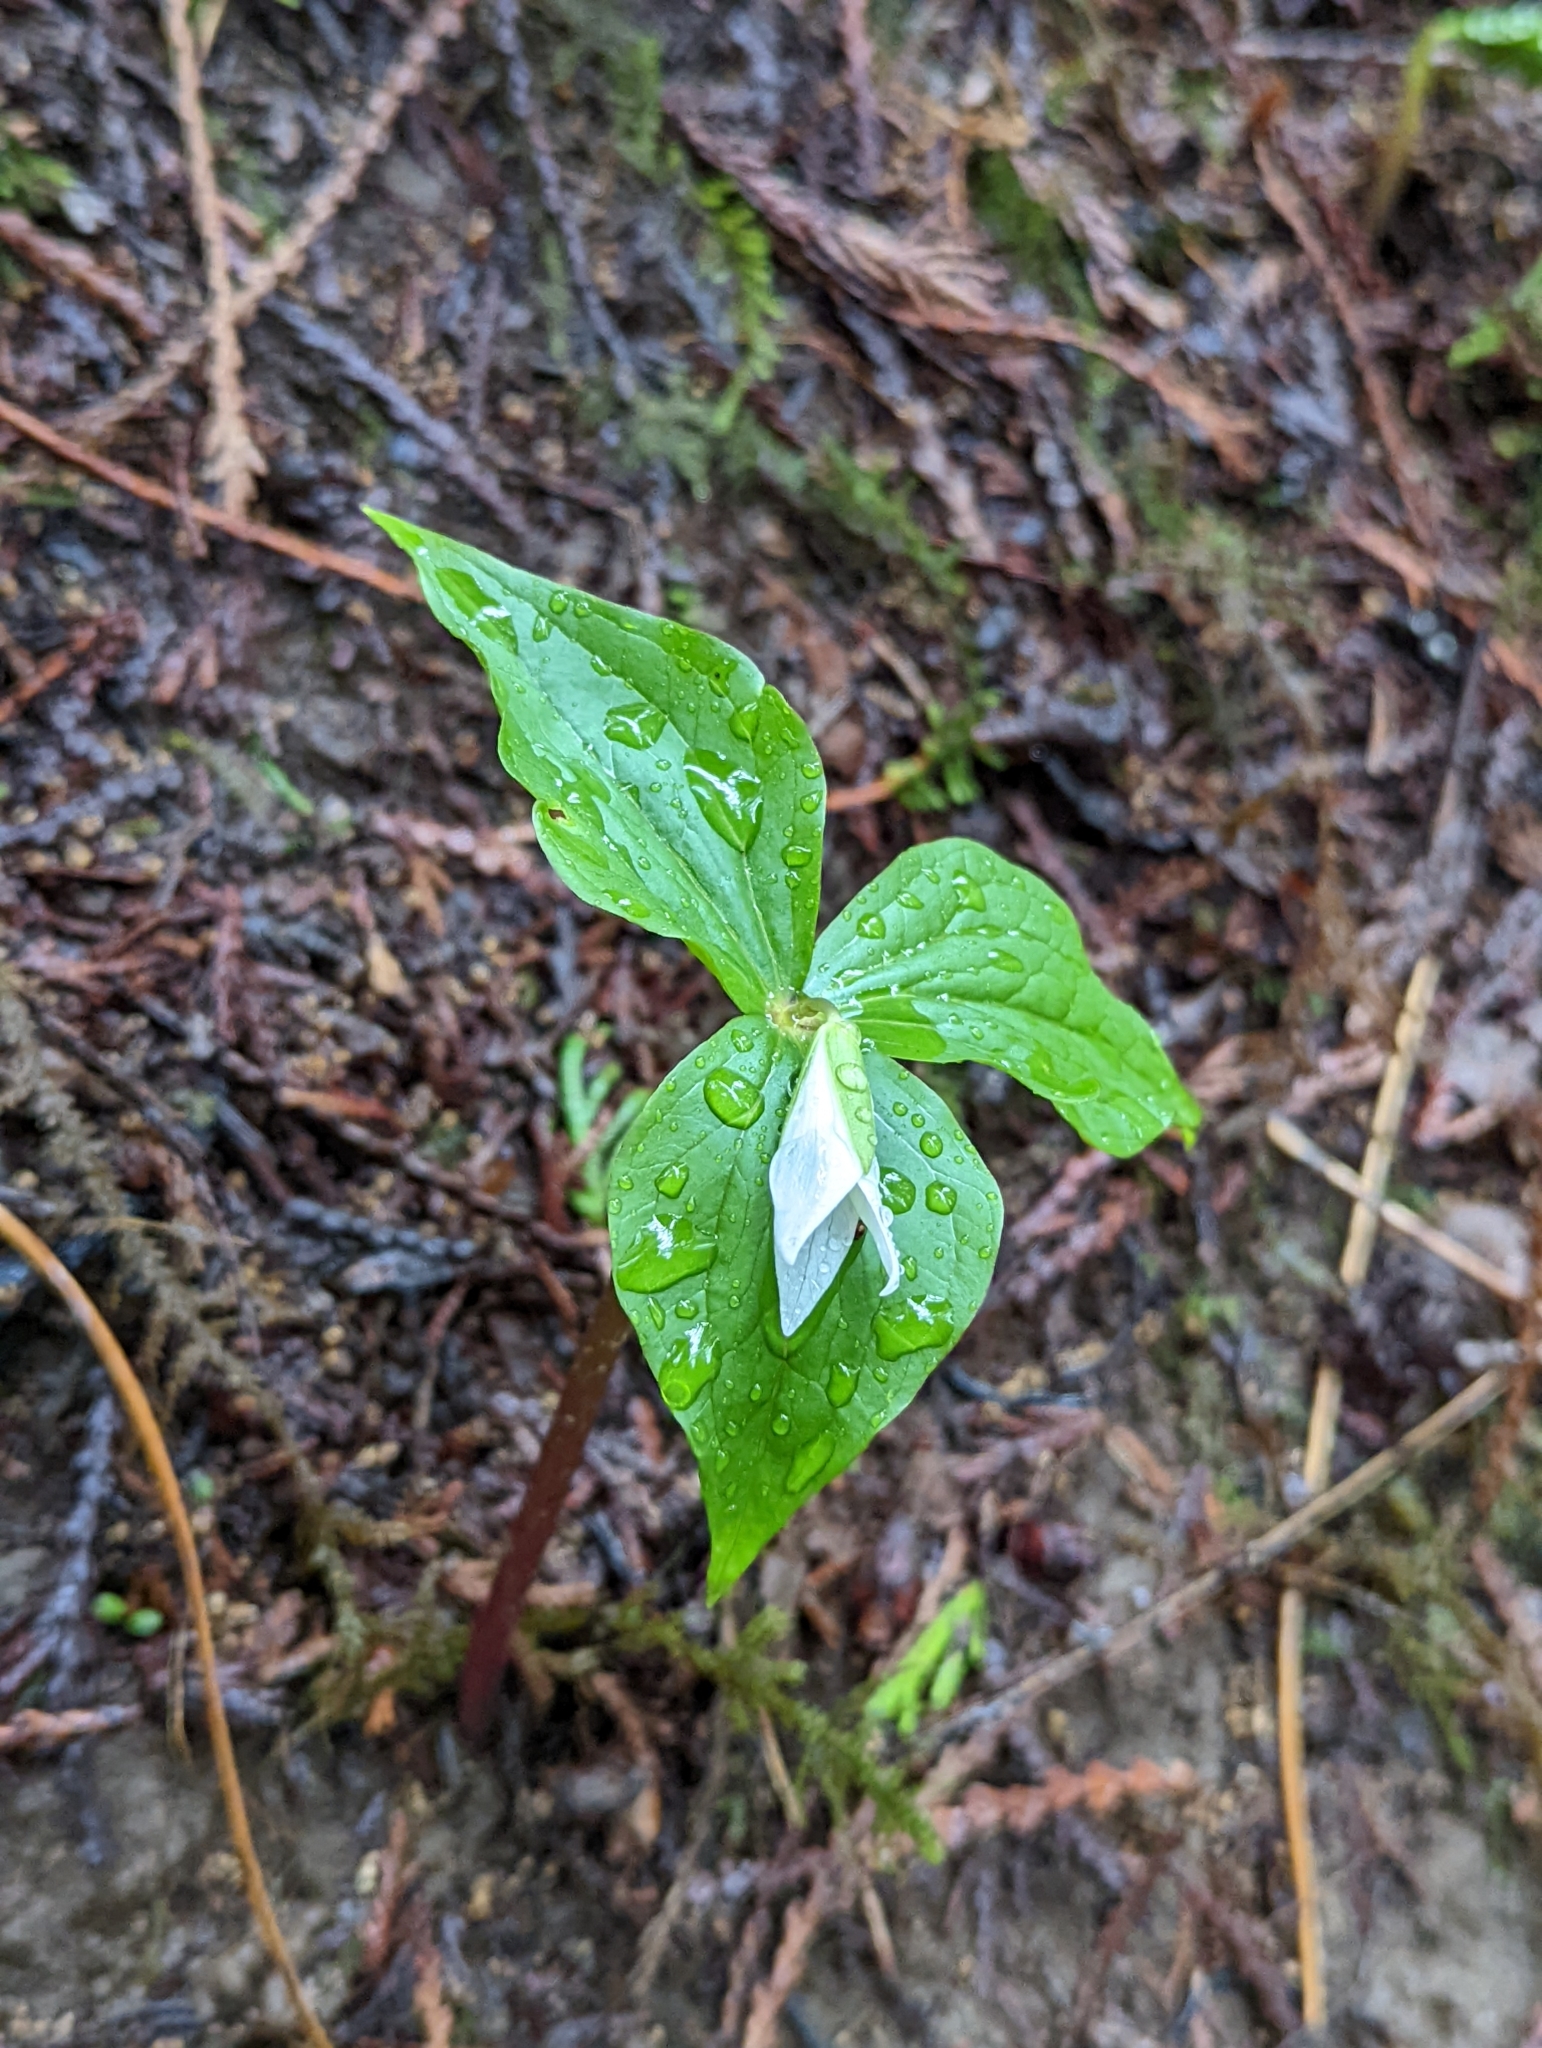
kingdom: Plantae
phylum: Tracheophyta
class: Liliopsida
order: Liliales
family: Melanthiaceae
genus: Trillium
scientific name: Trillium ovatum
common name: Pacific trillium
